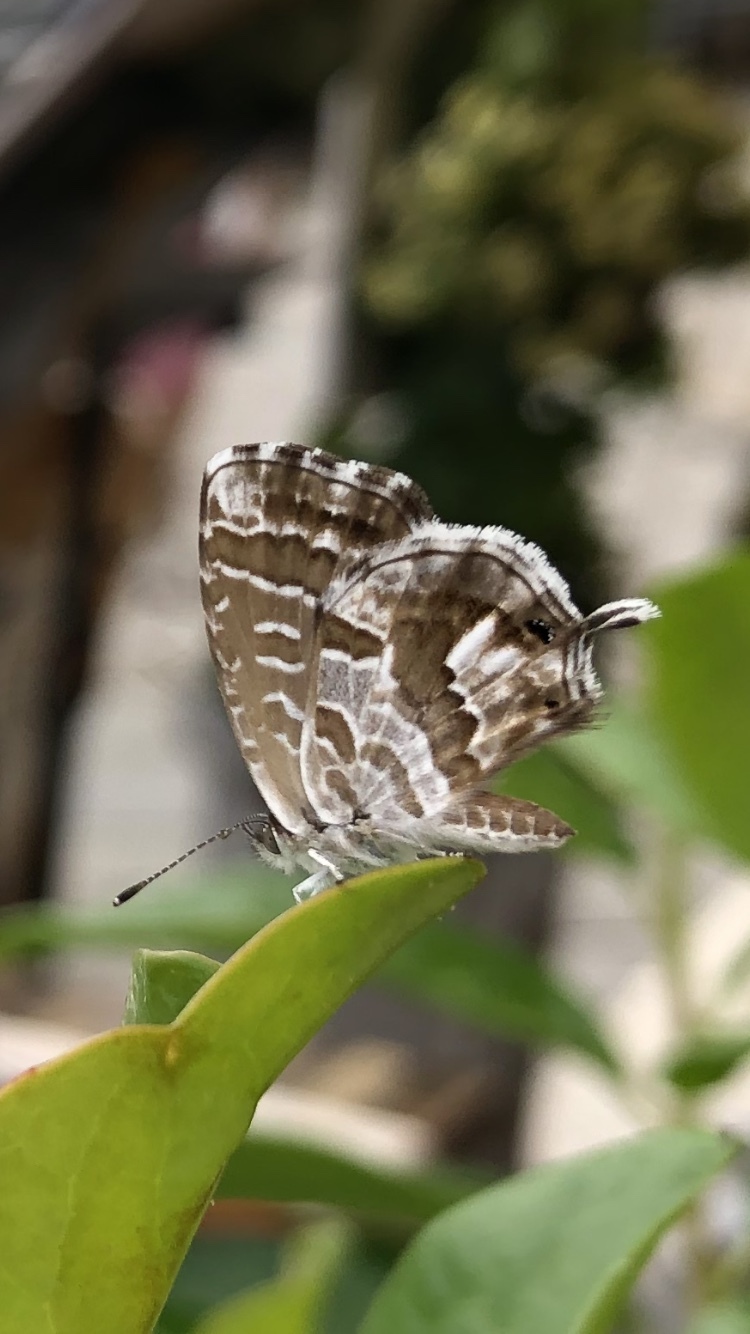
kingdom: Animalia
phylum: Arthropoda
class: Insecta
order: Lepidoptera
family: Lycaenidae
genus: Cacyreus
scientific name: Cacyreus marshalli
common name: Geranium bronze
